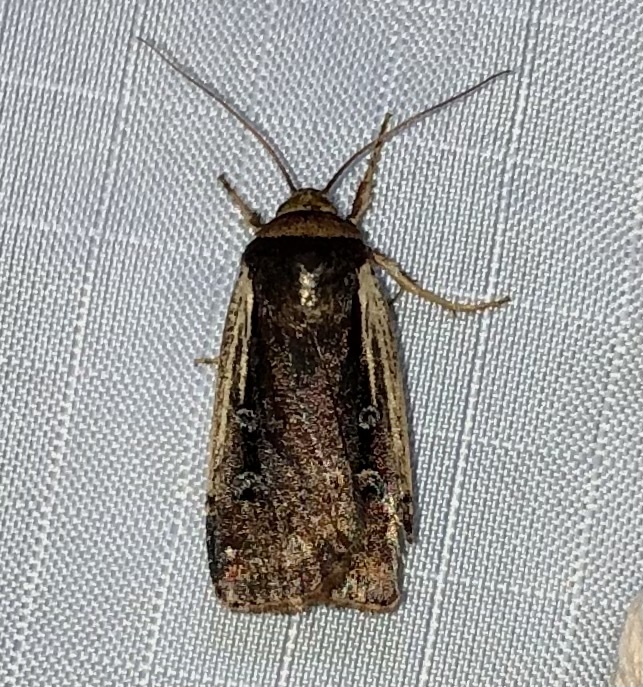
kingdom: Animalia
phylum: Arthropoda
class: Insecta
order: Lepidoptera
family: Noctuidae
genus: Ochropleura
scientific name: Ochropleura implecta
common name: Flame-shouldered dart
